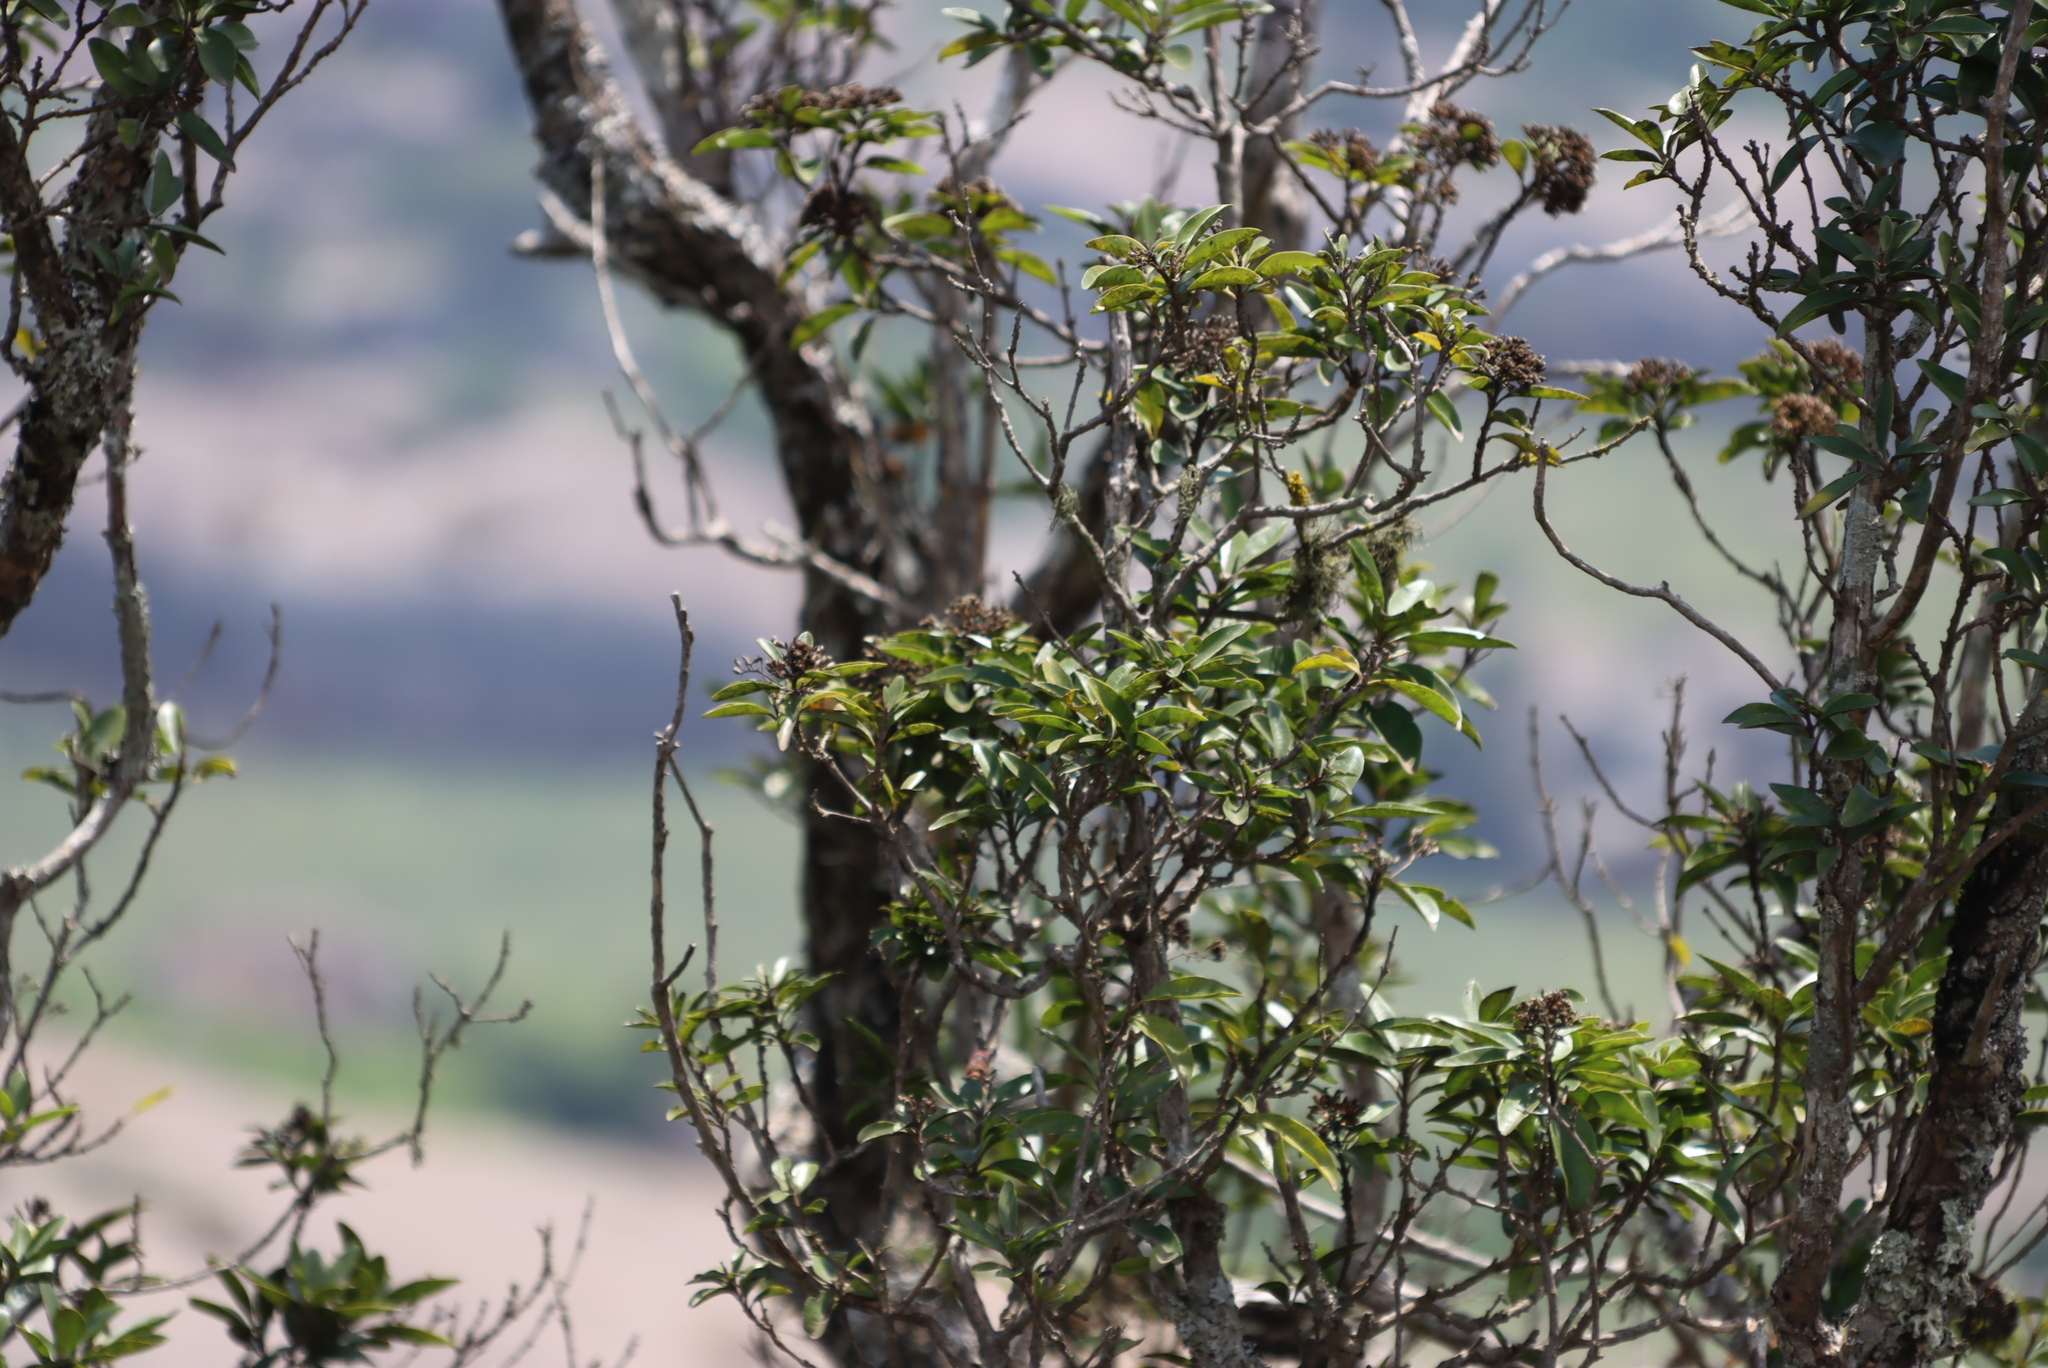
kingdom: Plantae
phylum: Tracheophyta
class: Magnoliopsida
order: Lamiales
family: Stilbaceae
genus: Nuxia
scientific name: Nuxia congesta
